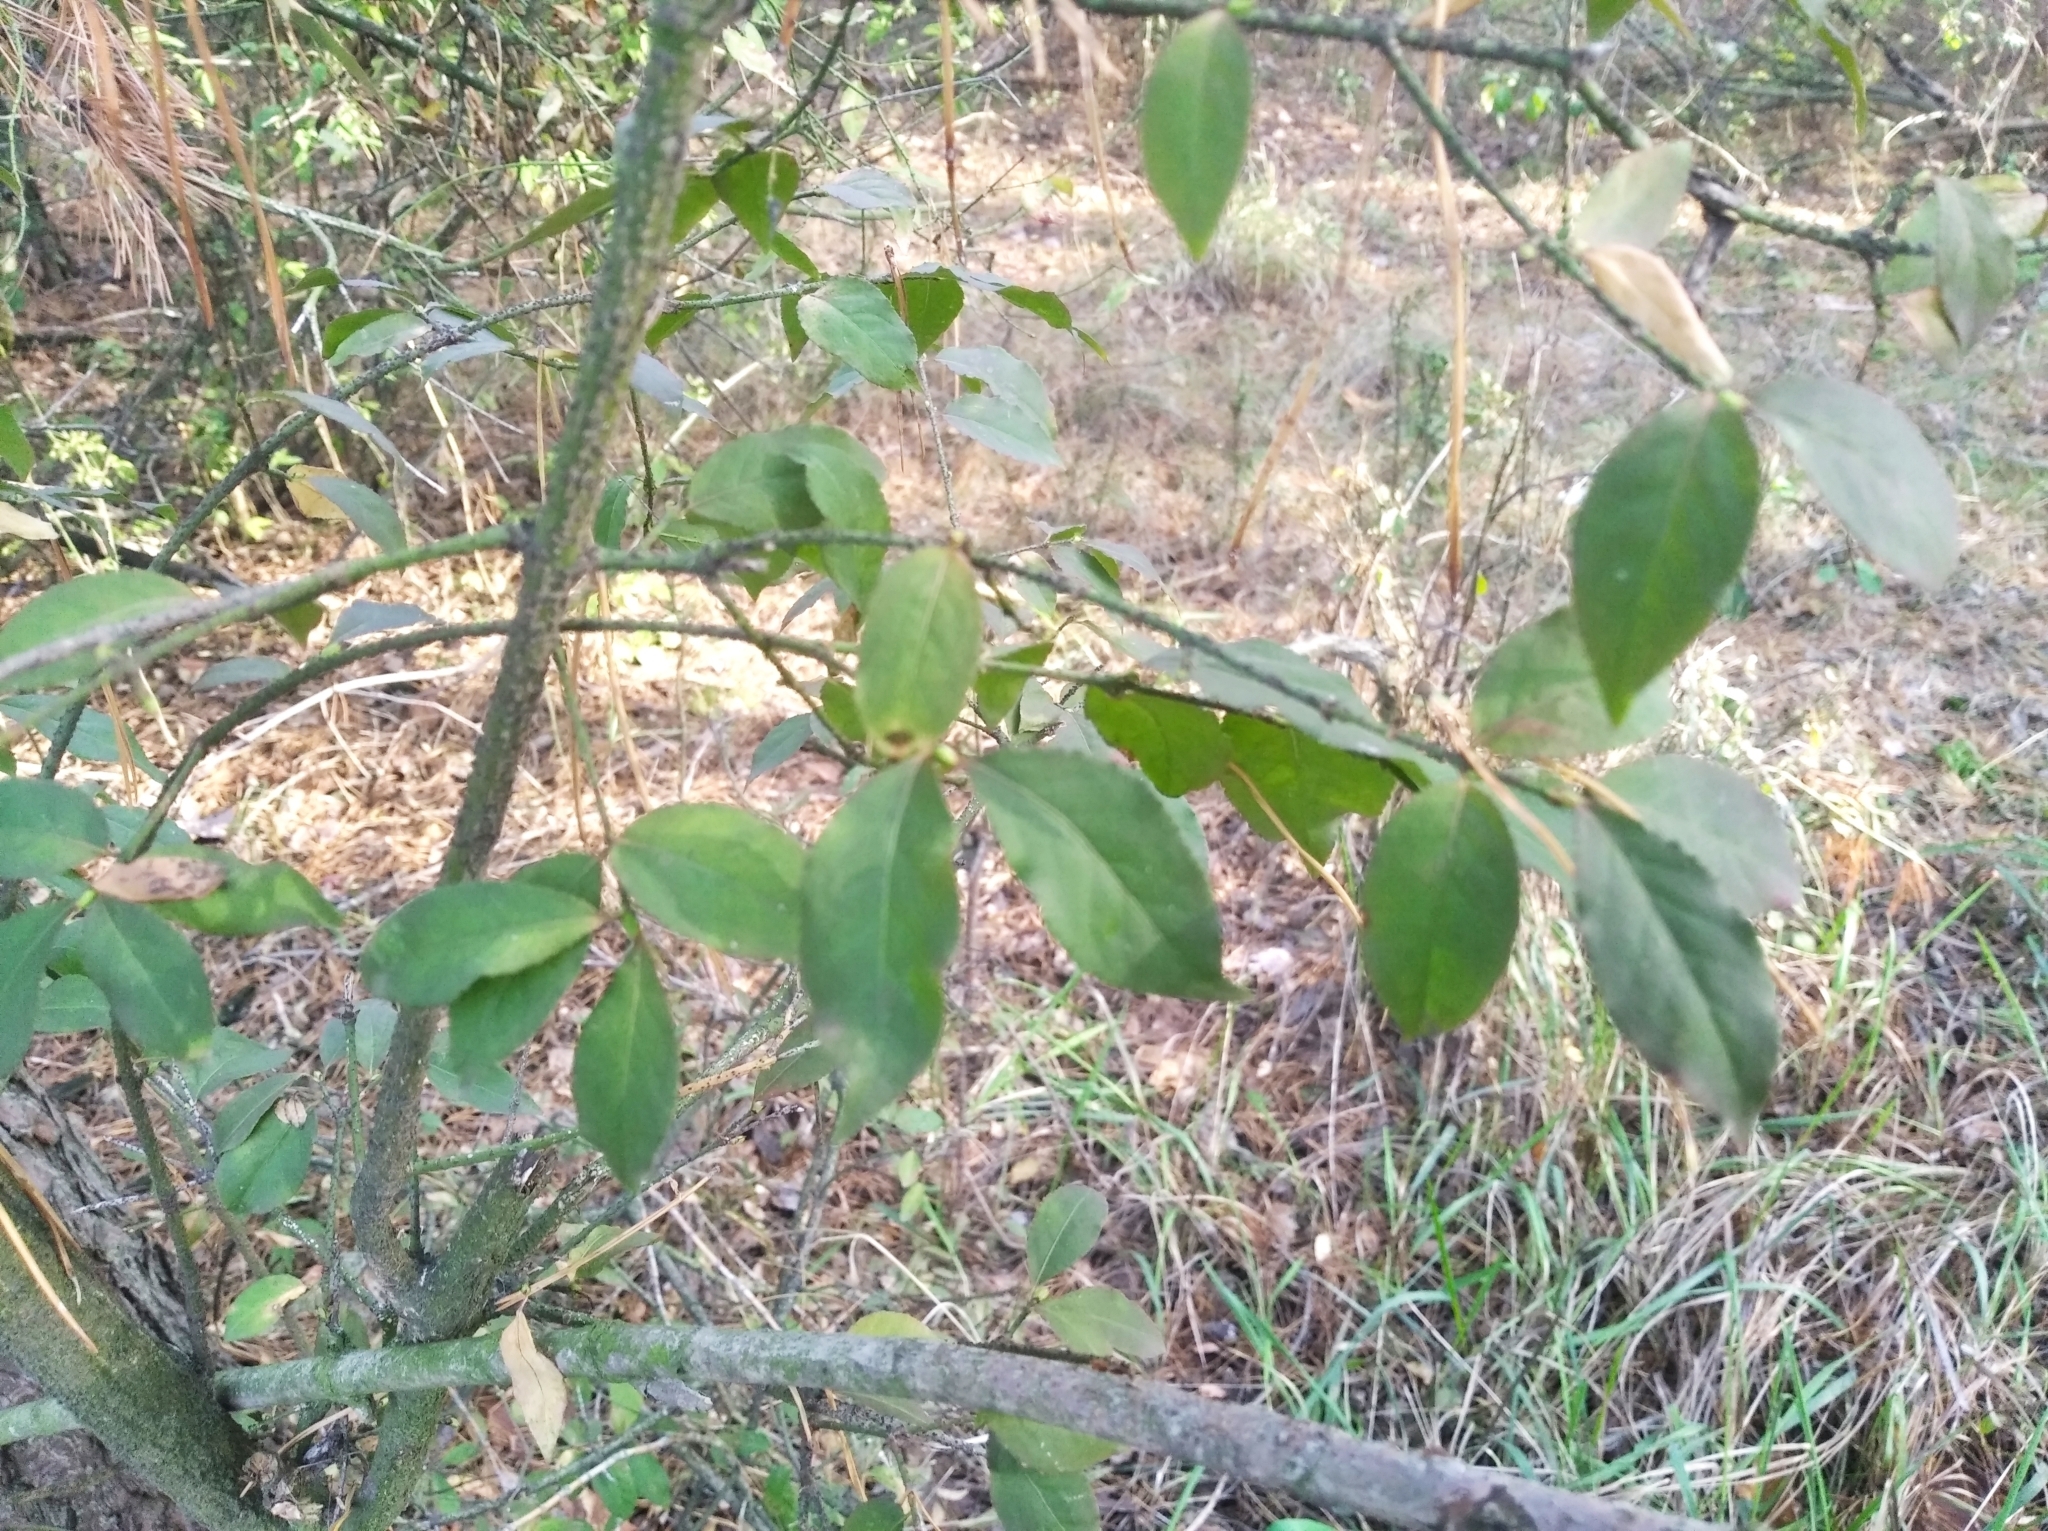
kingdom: Plantae
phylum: Tracheophyta
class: Magnoliopsida
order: Celastrales
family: Celastraceae
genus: Euonymus
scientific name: Euonymus verrucosus
